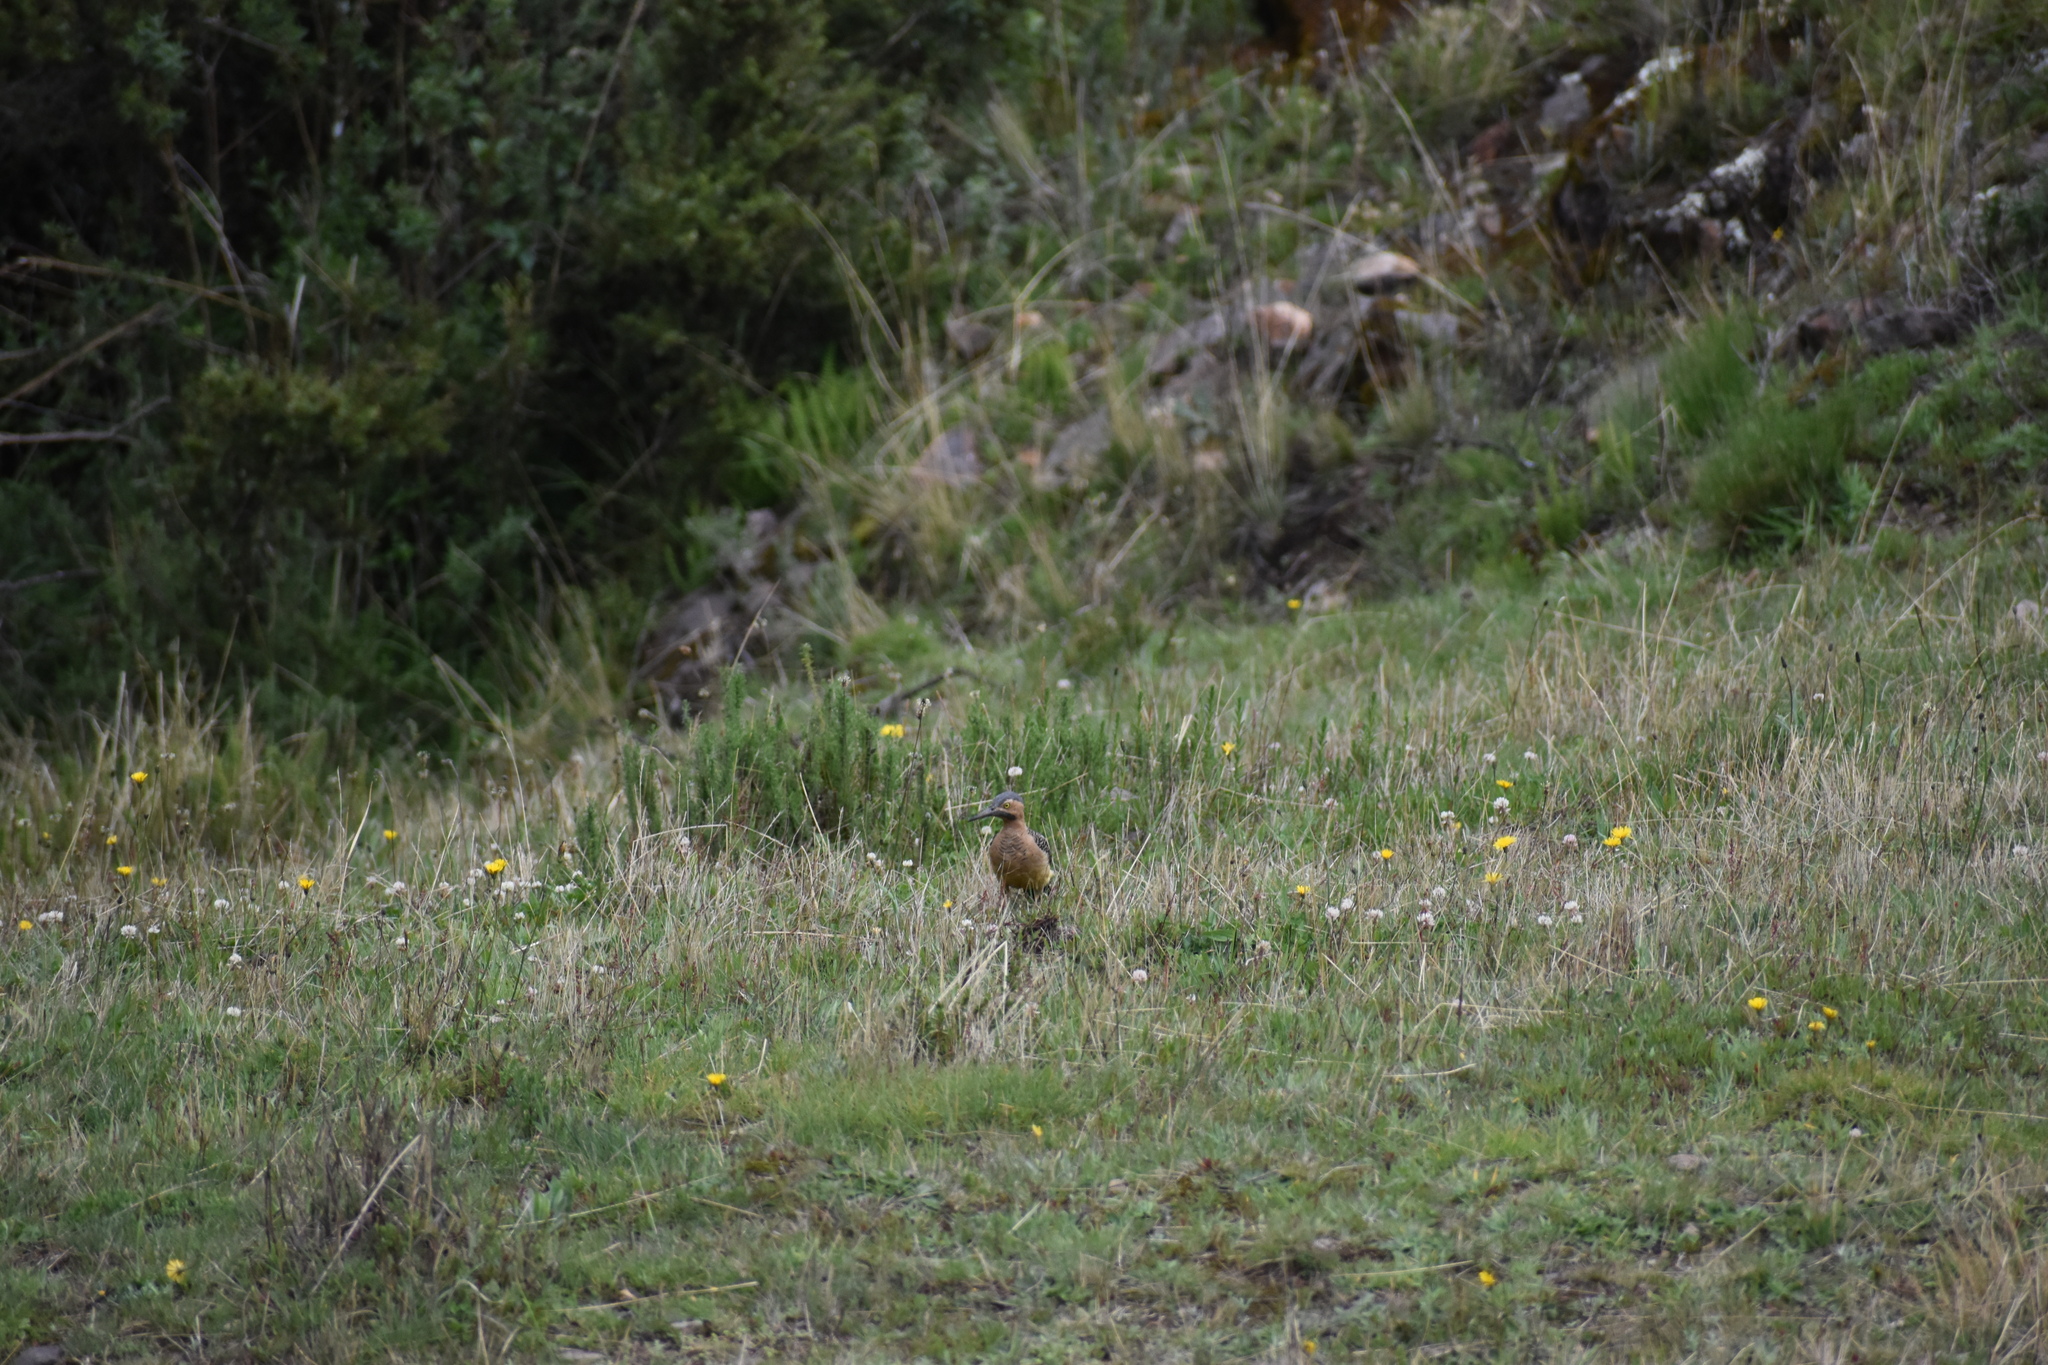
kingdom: Animalia
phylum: Chordata
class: Aves
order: Piciformes
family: Picidae
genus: Colaptes
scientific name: Colaptes rupicola
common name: Andean flicker
